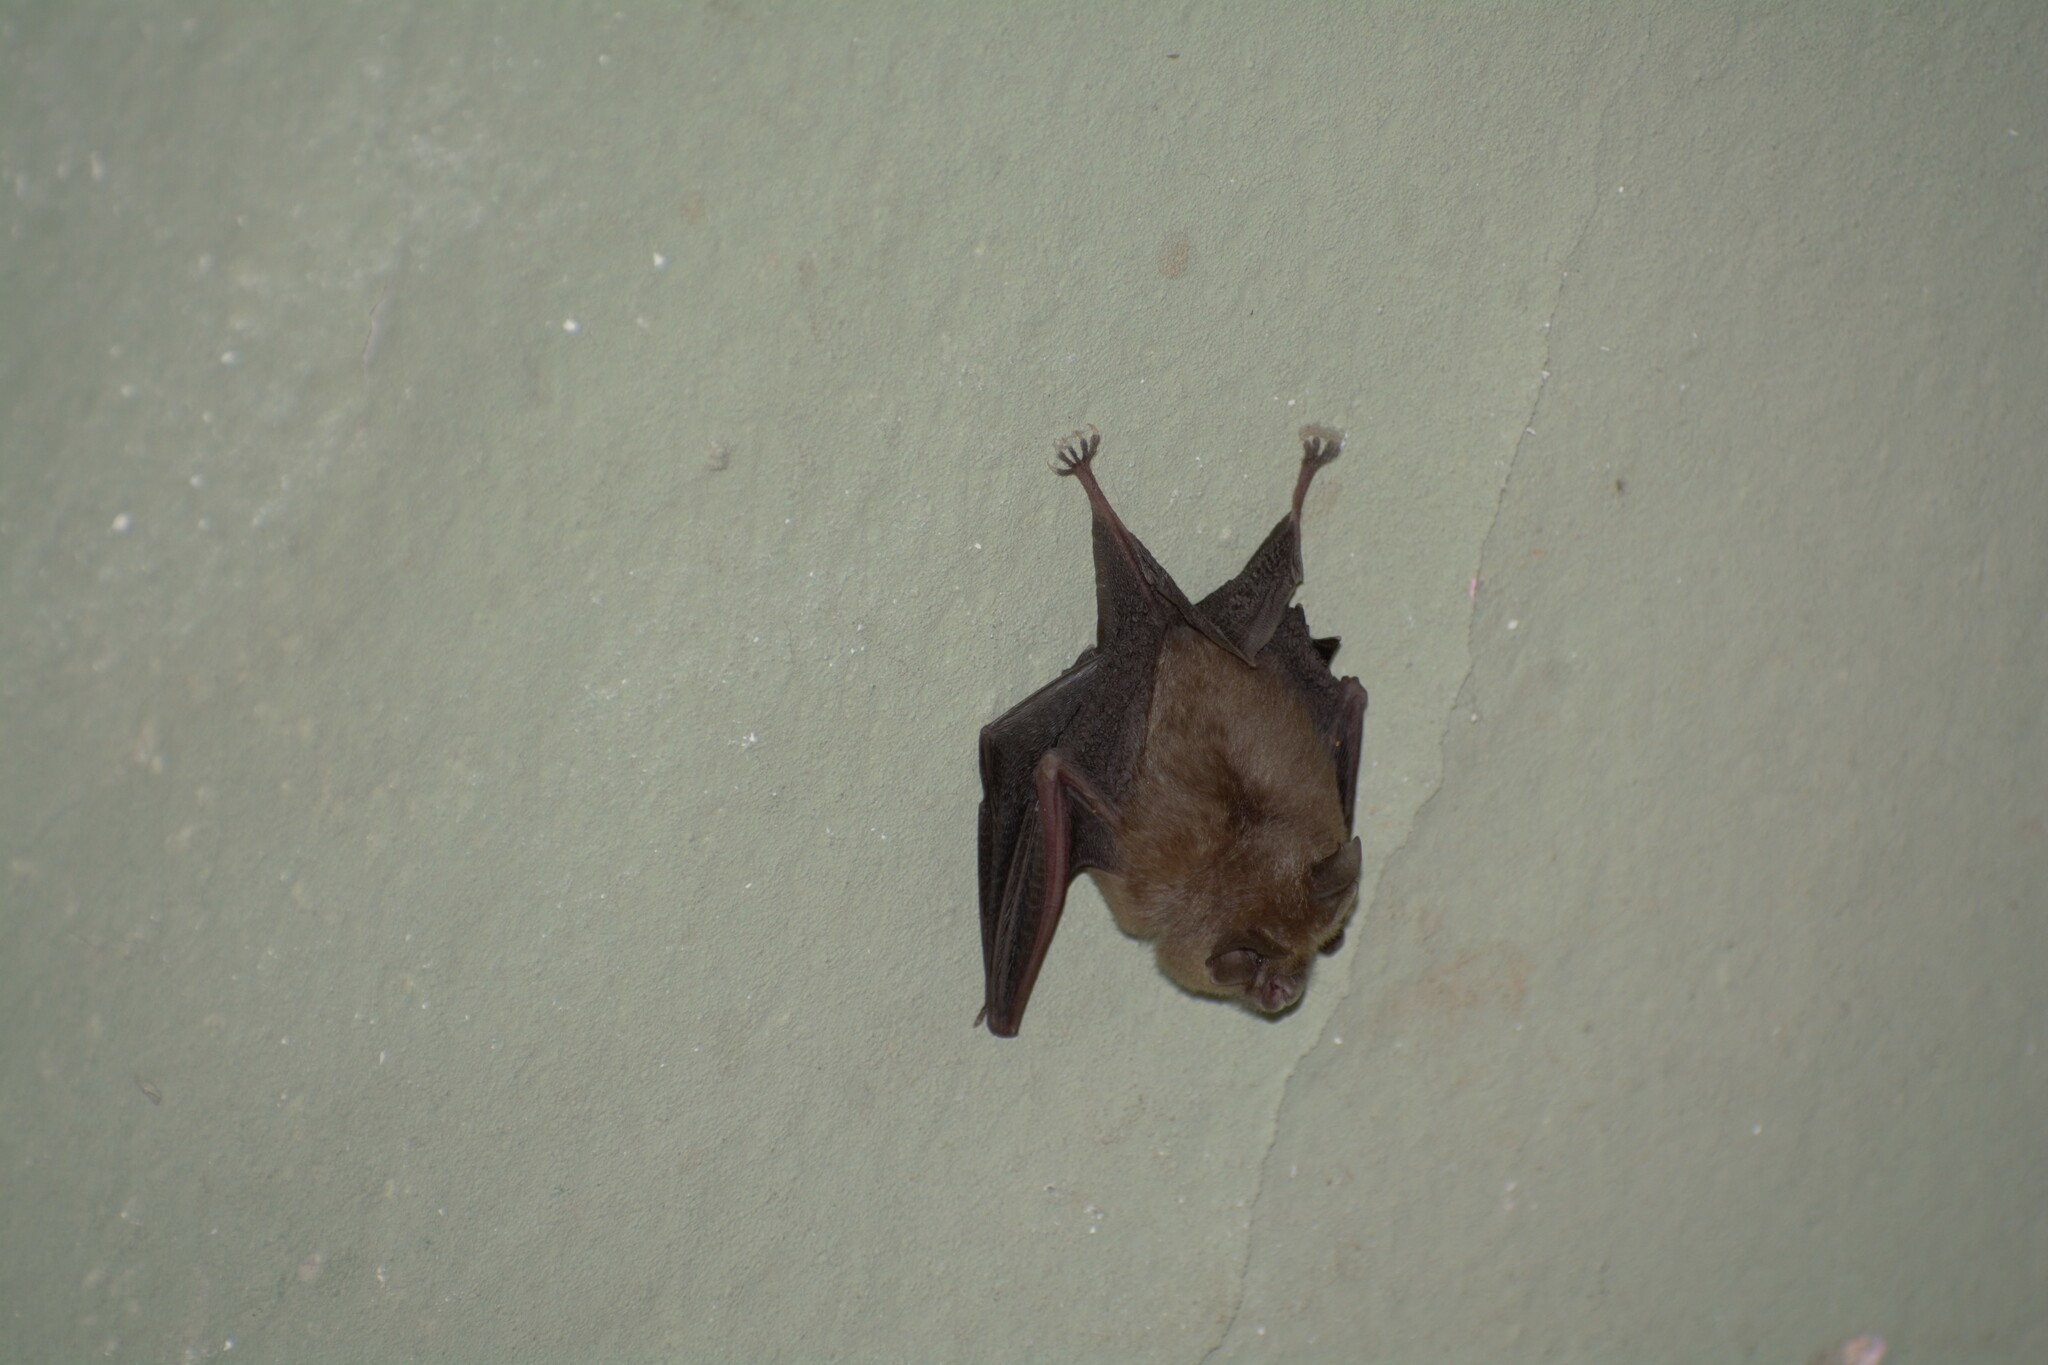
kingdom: Animalia
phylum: Chordata
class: Mammalia
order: Chiroptera
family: Rhinolophidae
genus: Rhinolophus
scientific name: Rhinolophus hipposideros
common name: Lesser horseshoe bat
